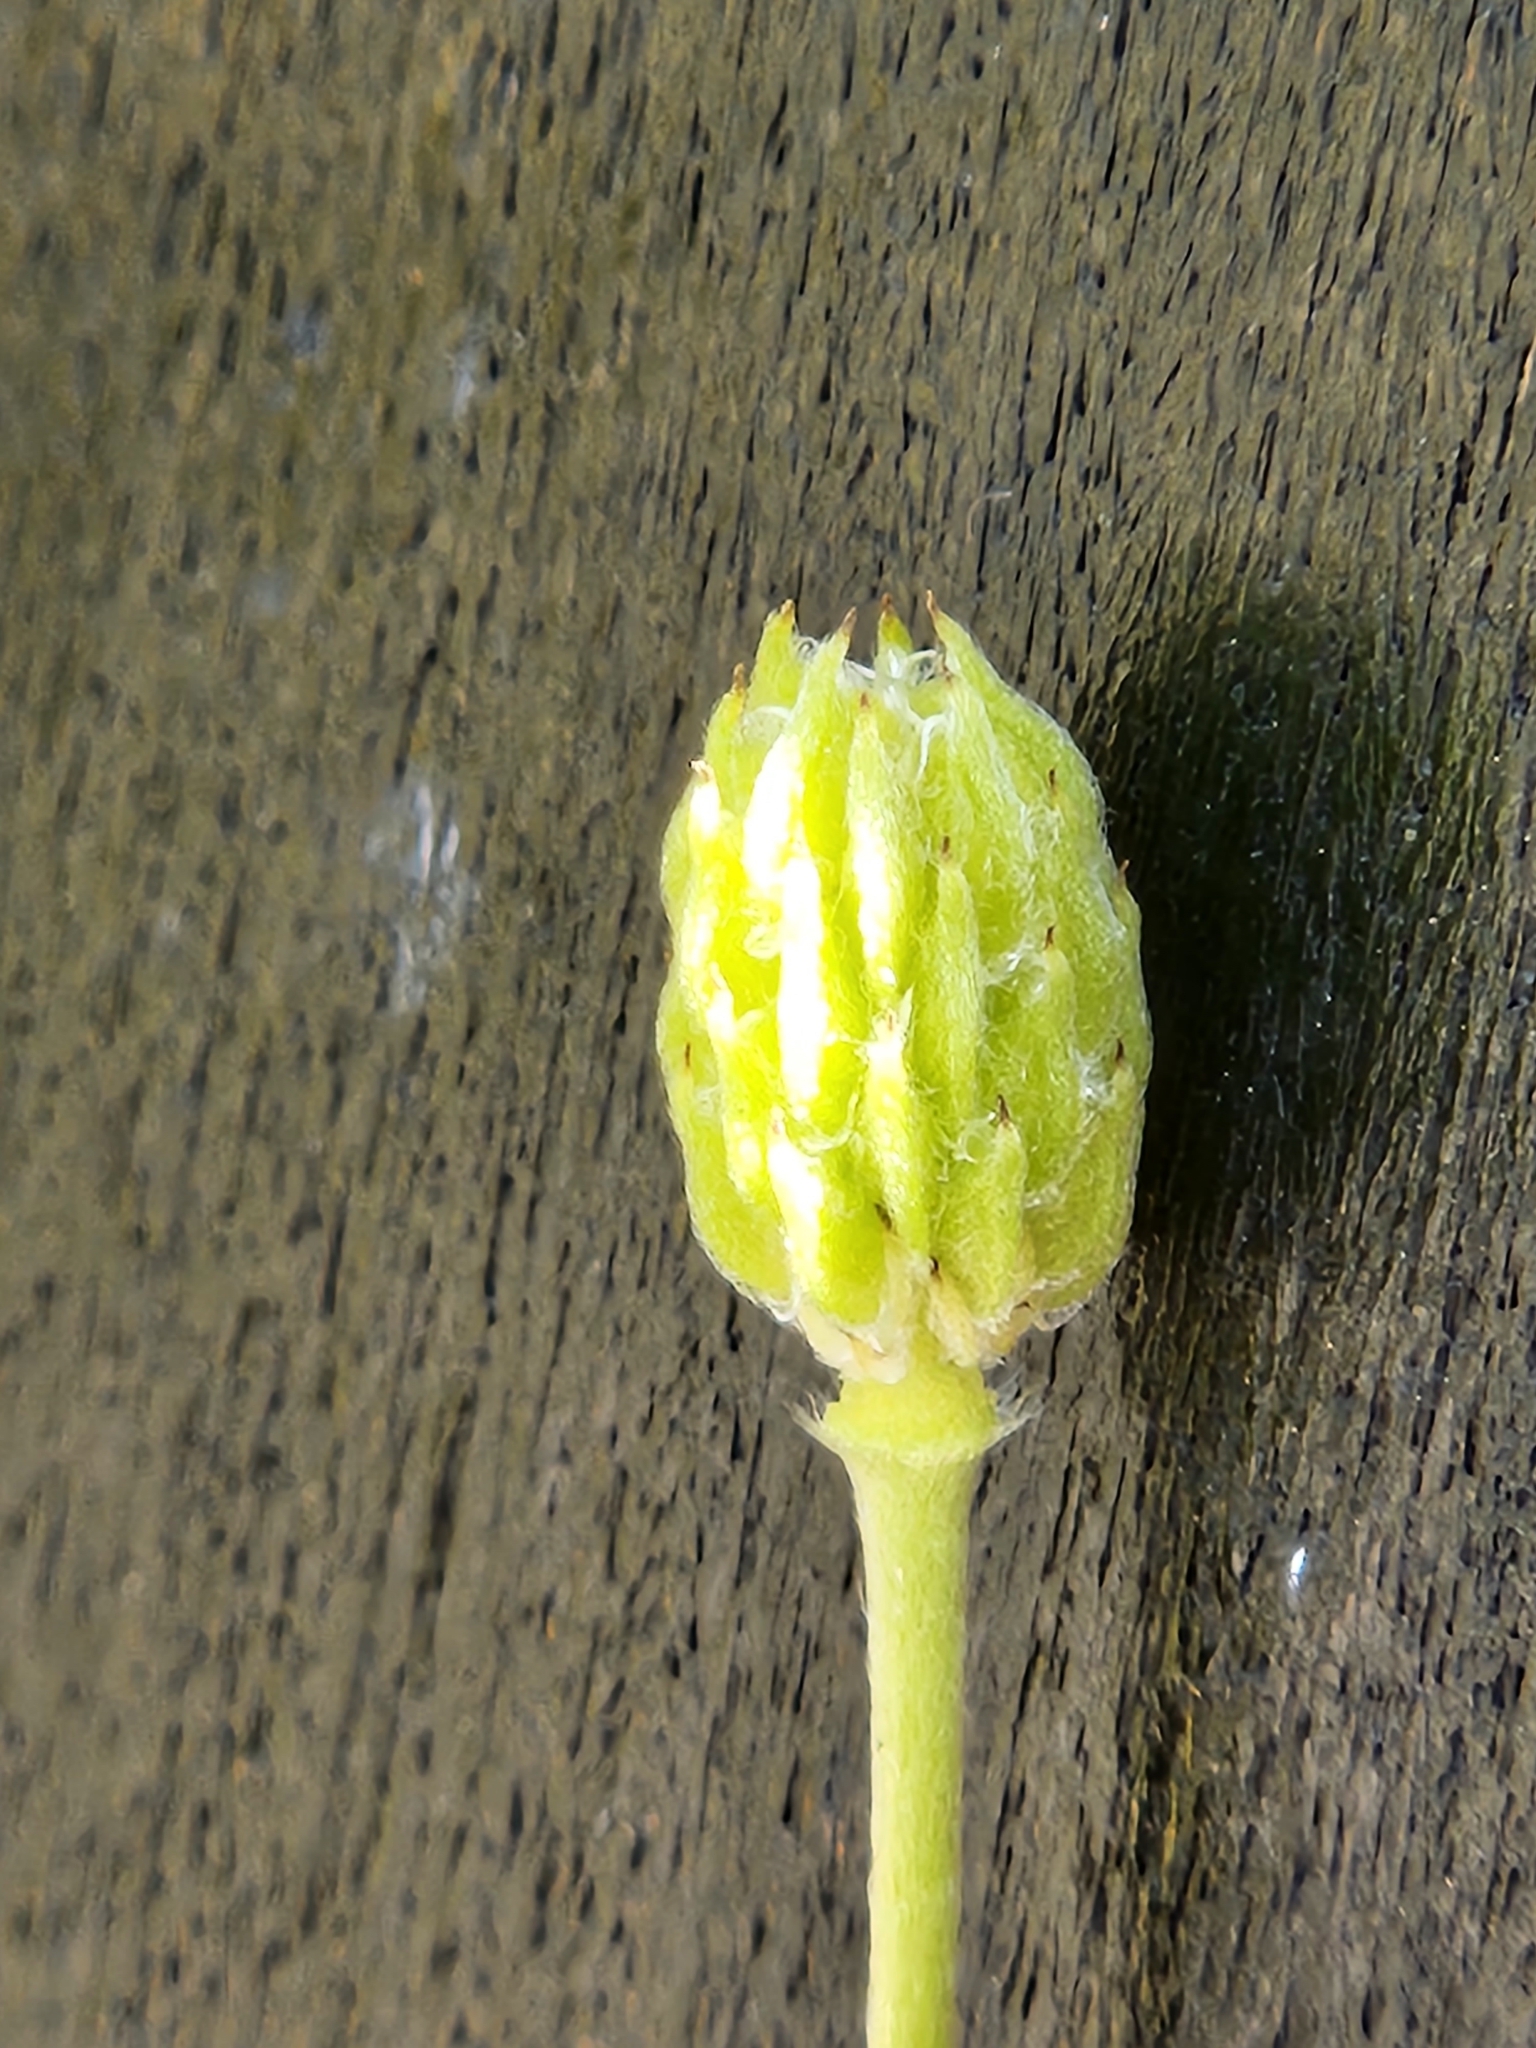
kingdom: Plantae
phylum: Tracheophyta
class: Magnoliopsida
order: Ranunculales
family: Ranunculaceae
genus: Anemone
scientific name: Anemone edwardsiana
